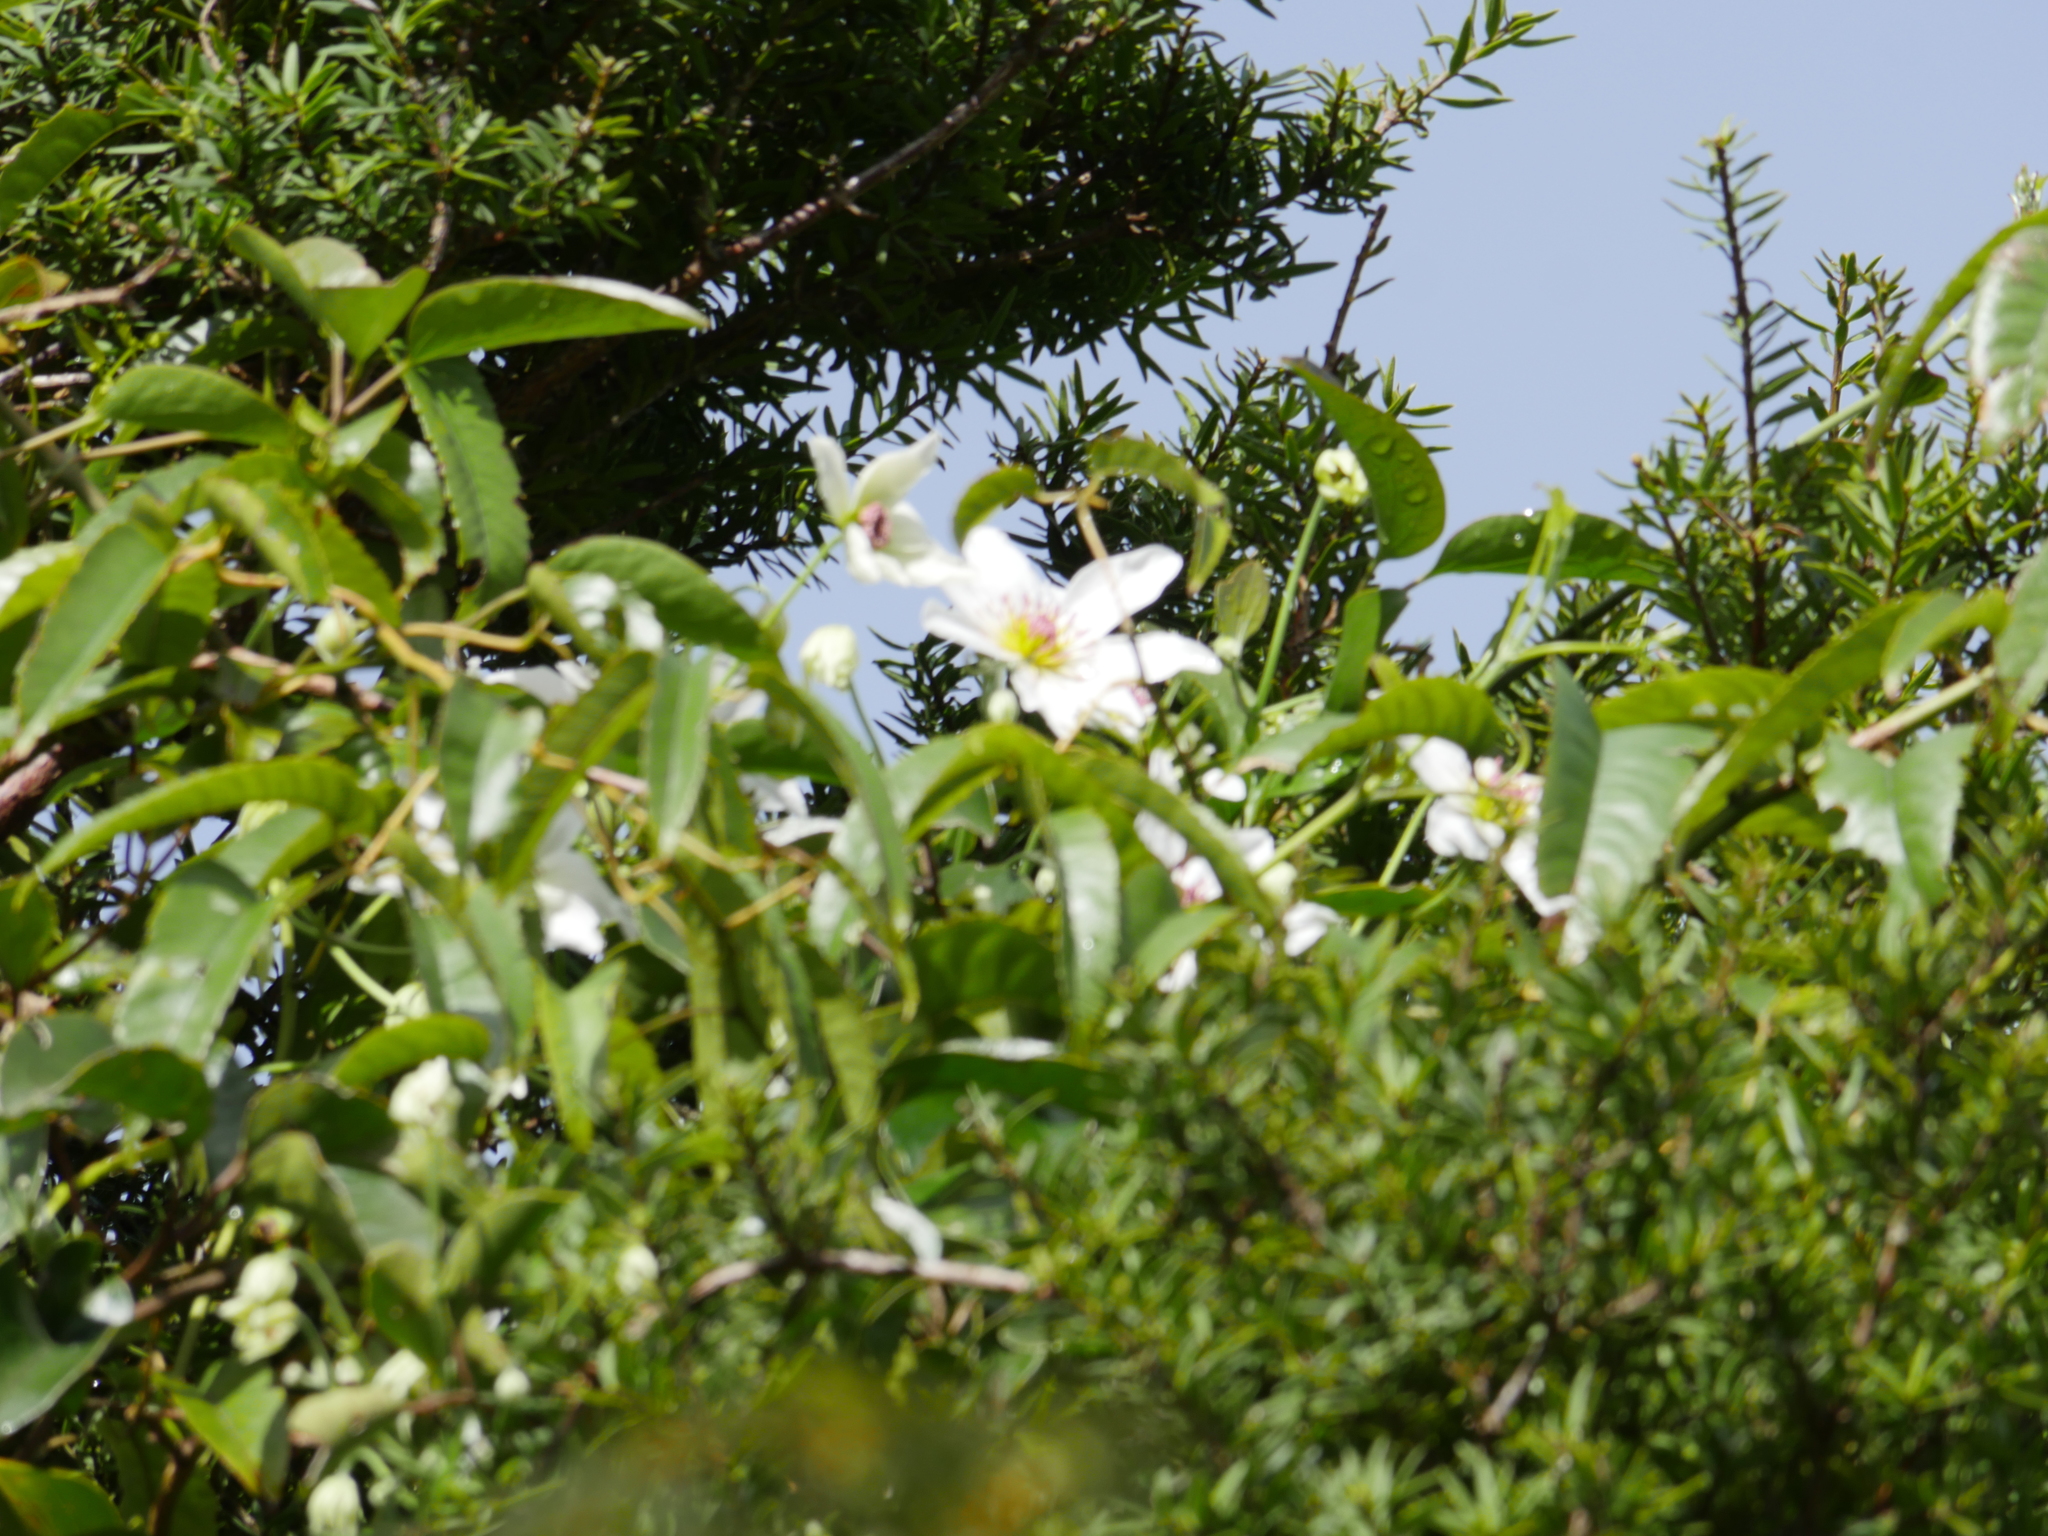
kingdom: Plantae
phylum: Tracheophyta
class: Magnoliopsida
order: Ranunculales
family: Ranunculaceae
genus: Clematis
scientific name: Clematis paniculata
